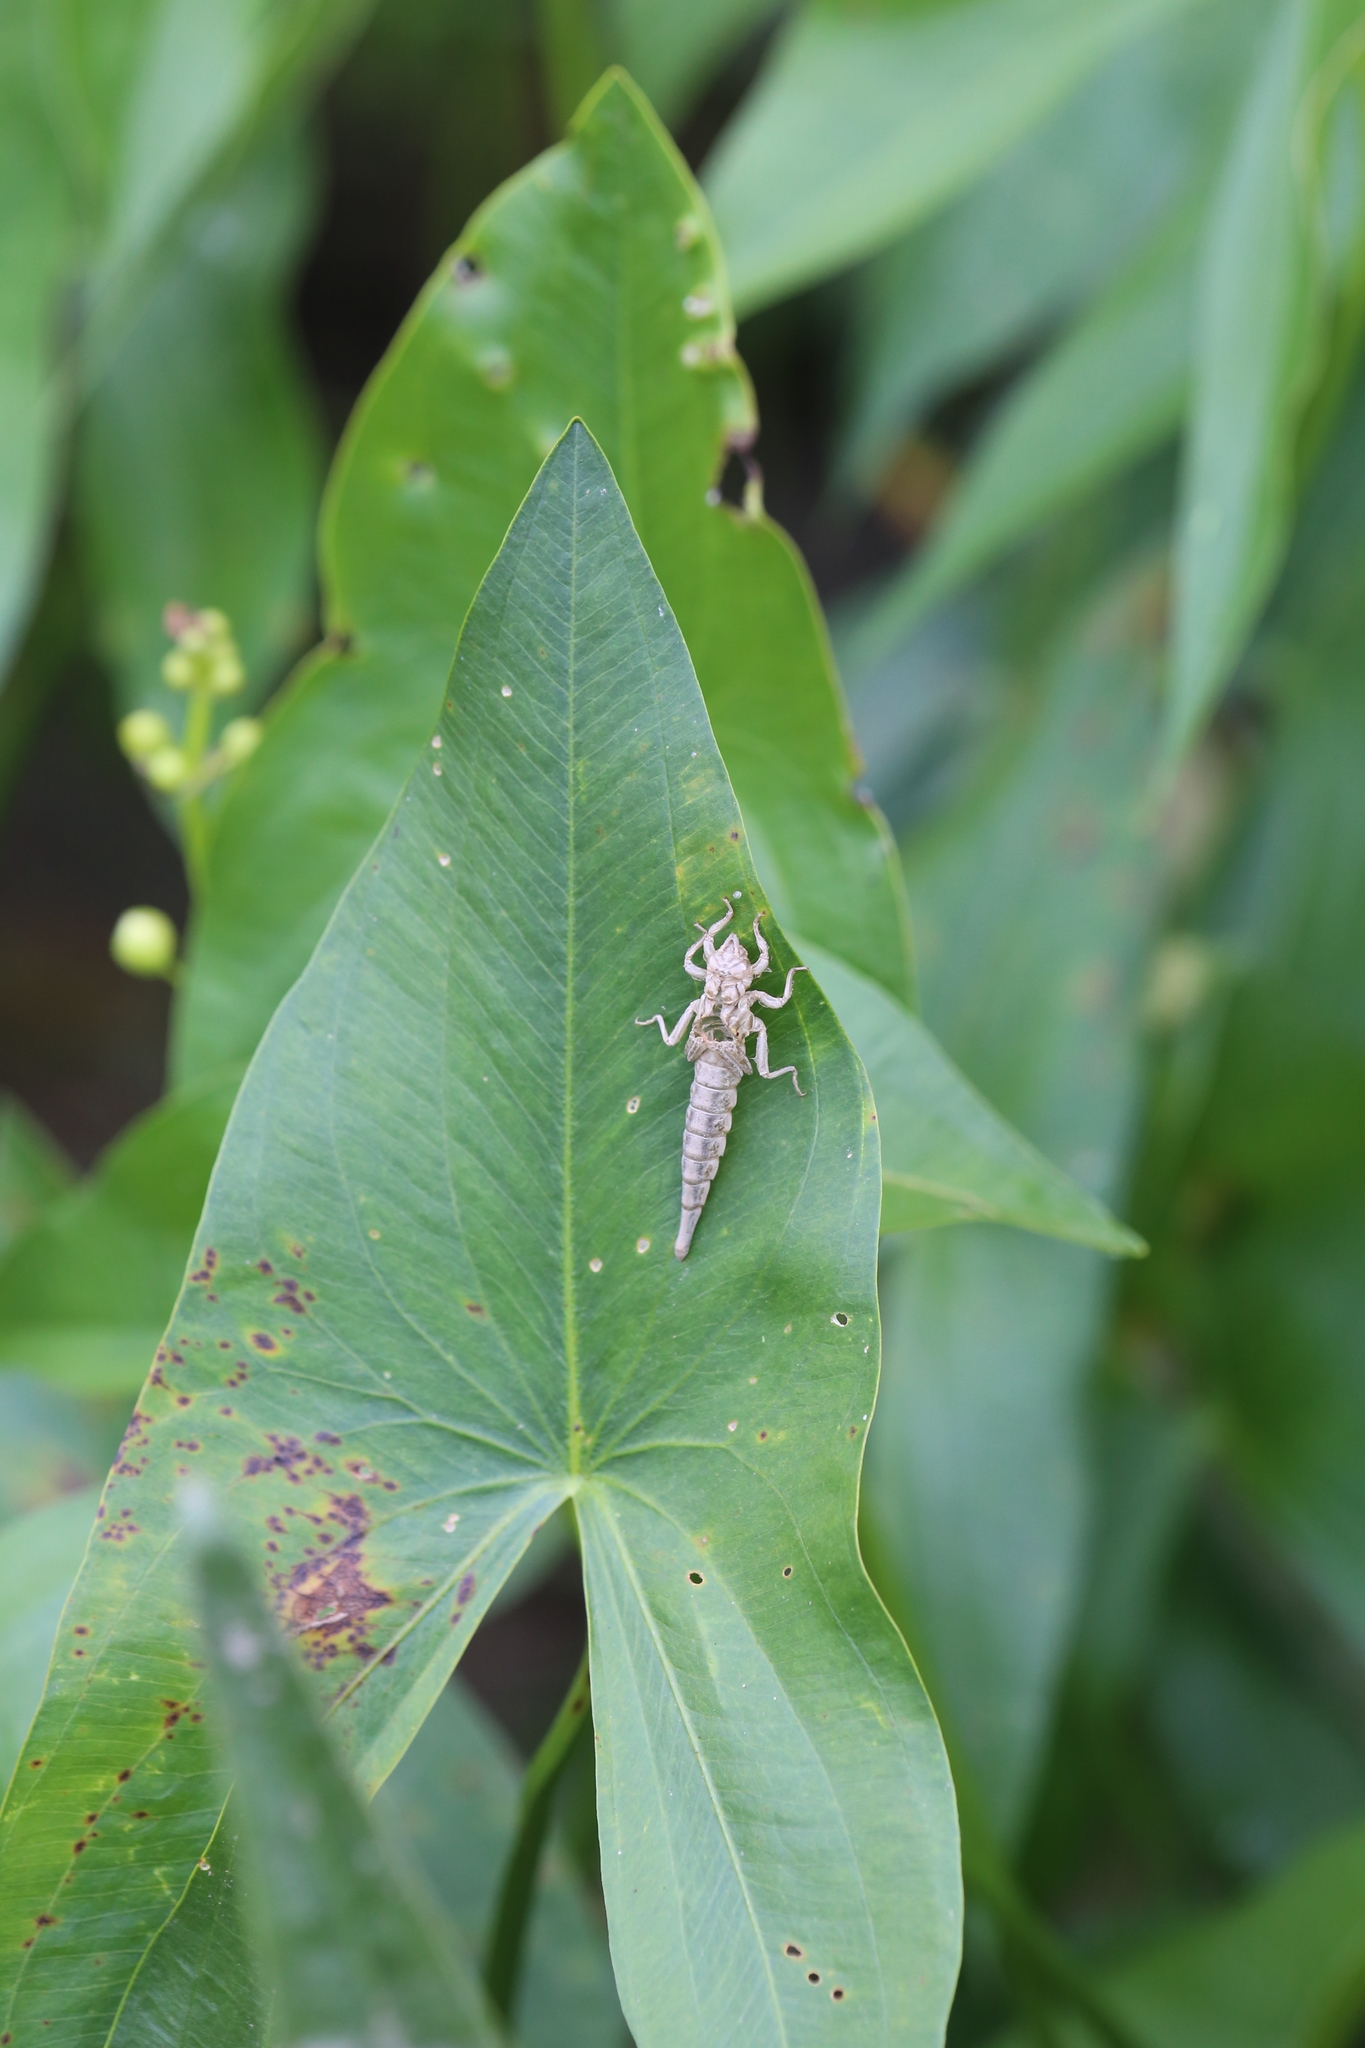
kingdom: Animalia
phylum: Arthropoda
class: Insecta
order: Odonata
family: Gomphidae
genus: Stylurus
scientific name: Stylurus spiniceps
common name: Arrow clubtail
